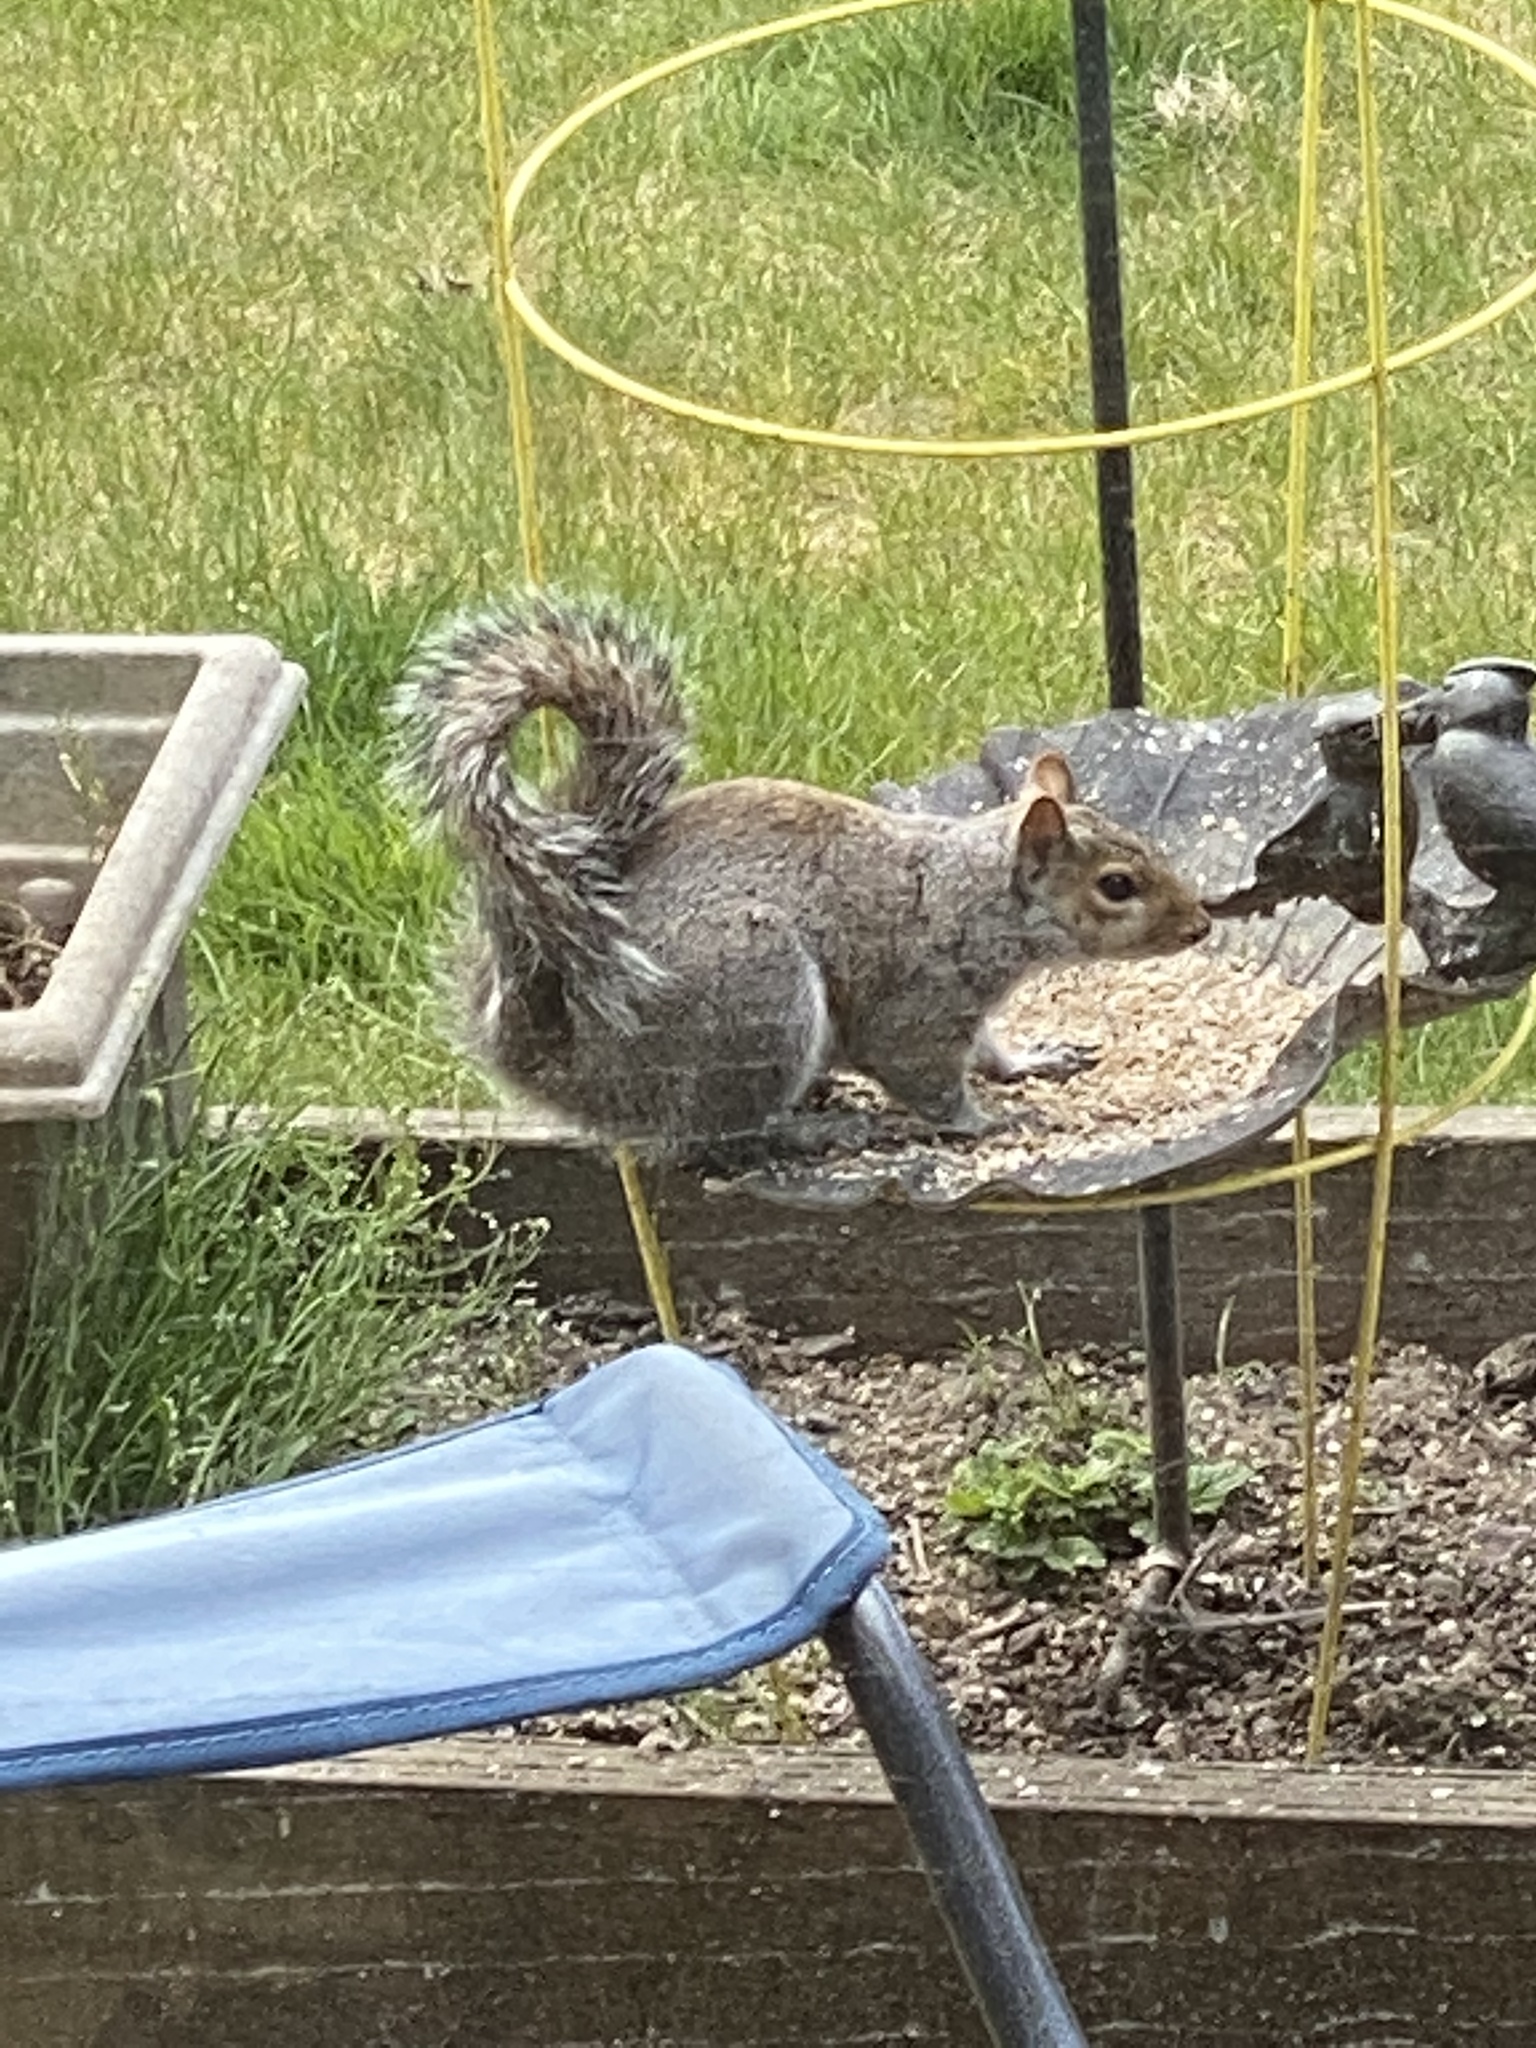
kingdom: Animalia
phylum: Chordata
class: Mammalia
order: Rodentia
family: Sciuridae
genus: Sciurus
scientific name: Sciurus carolinensis
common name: Eastern gray squirrel
